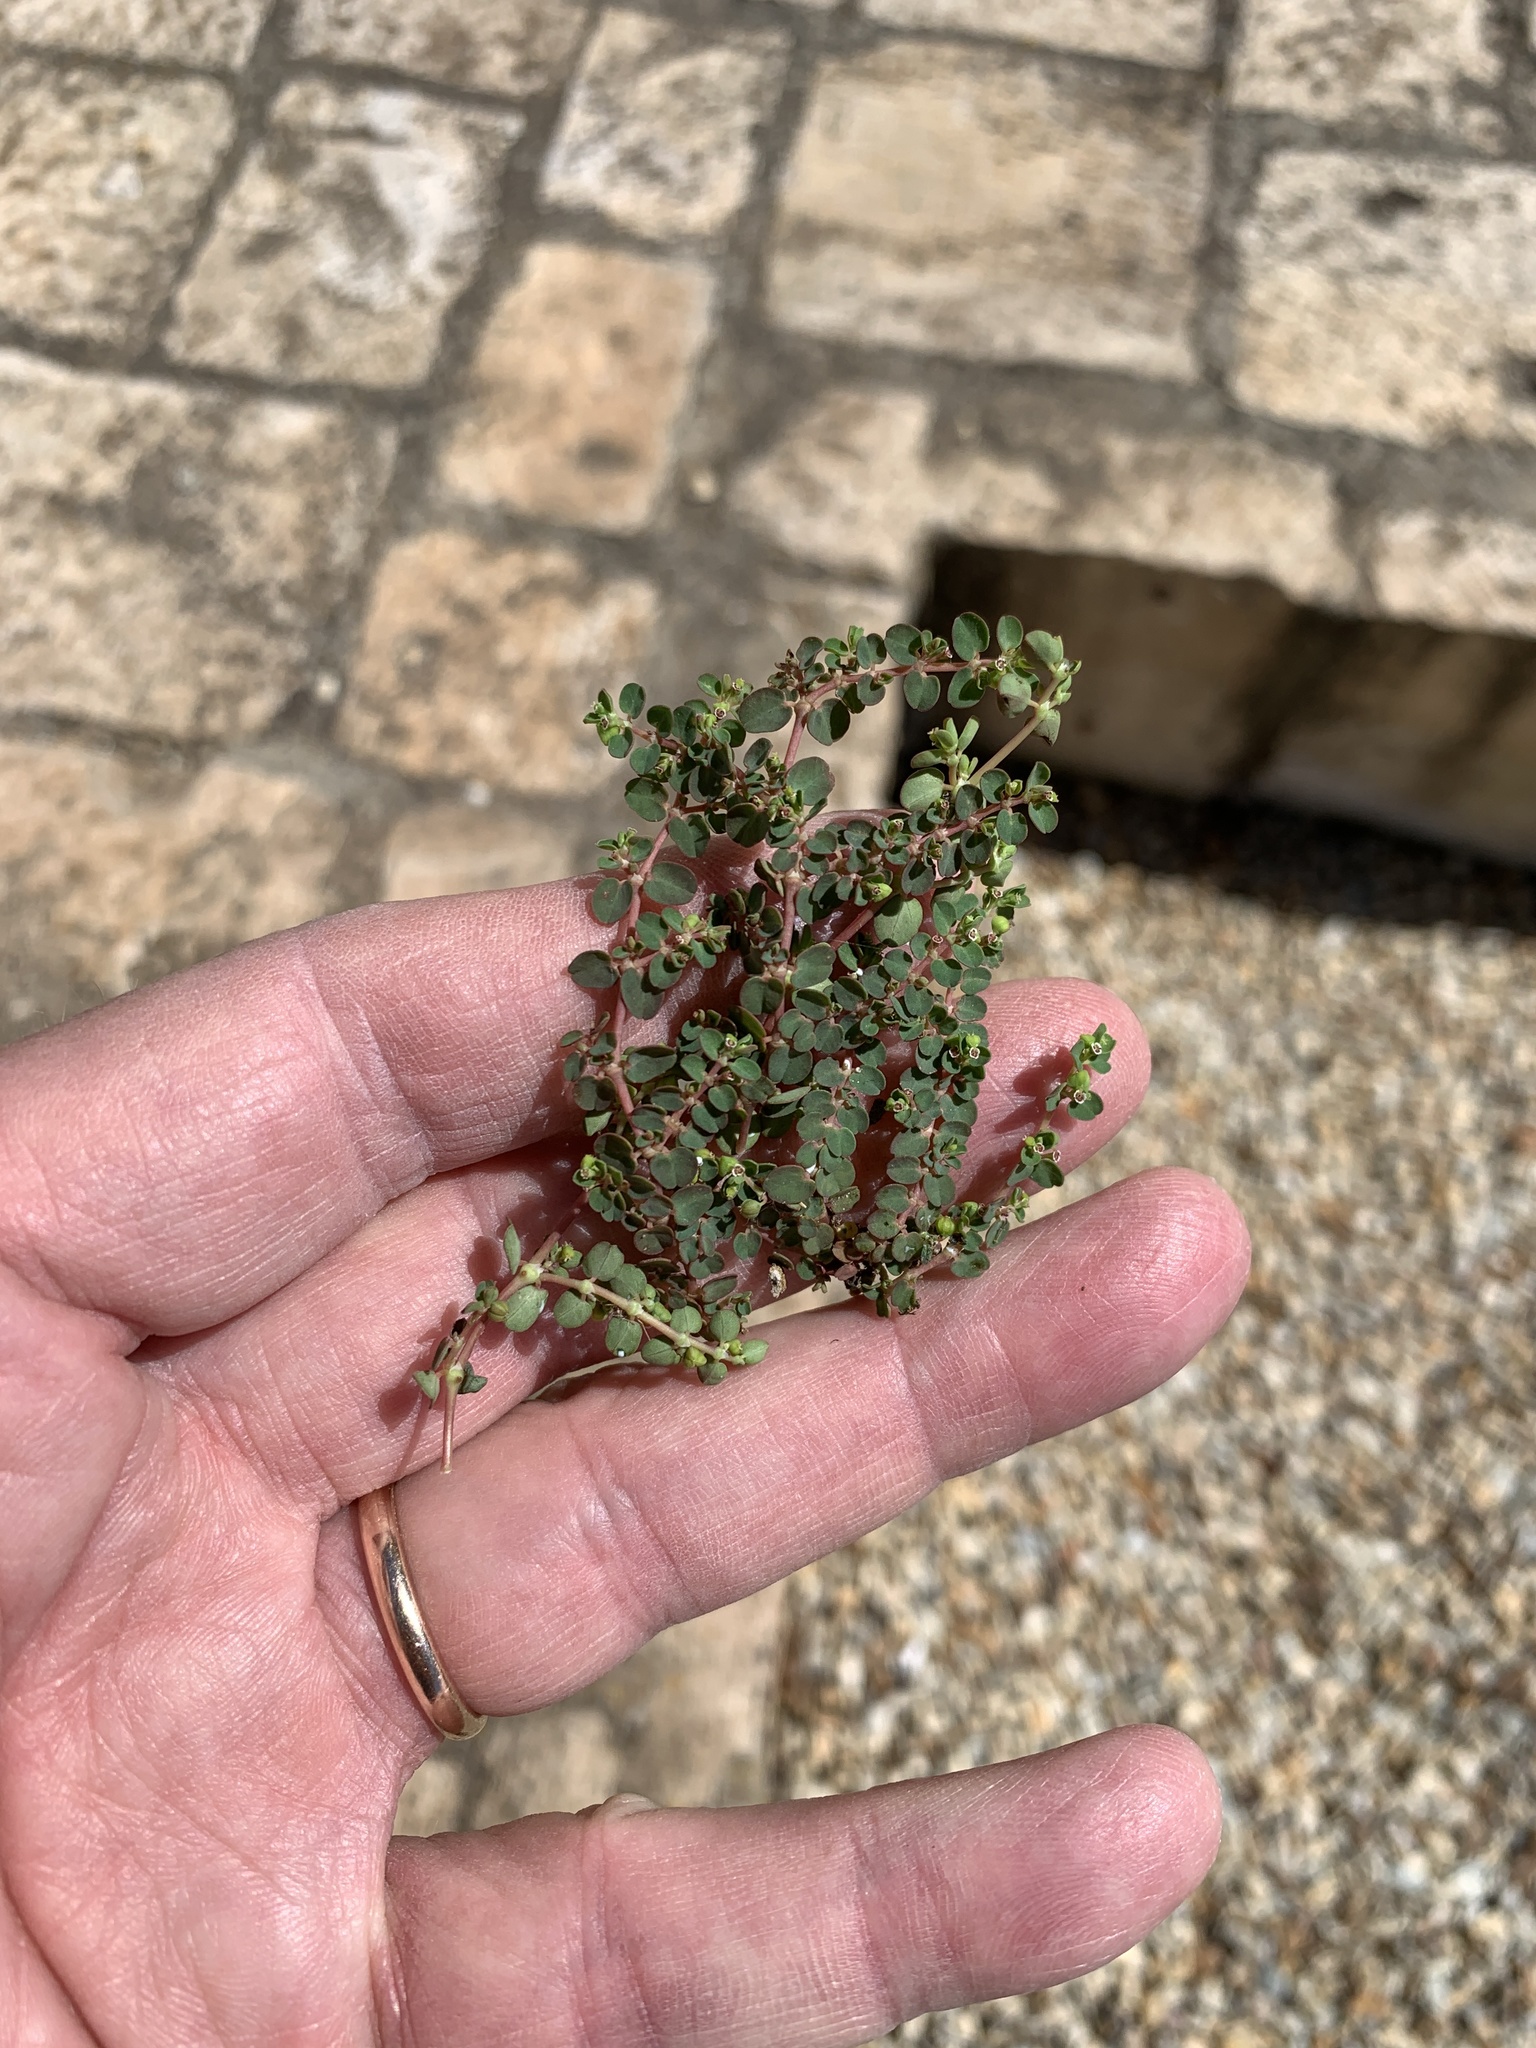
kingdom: Plantae
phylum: Tracheophyta
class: Magnoliopsida
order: Malpighiales
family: Euphorbiaceae
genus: Euphorbia
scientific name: Euphorbia serpens
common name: Matted sandmat
